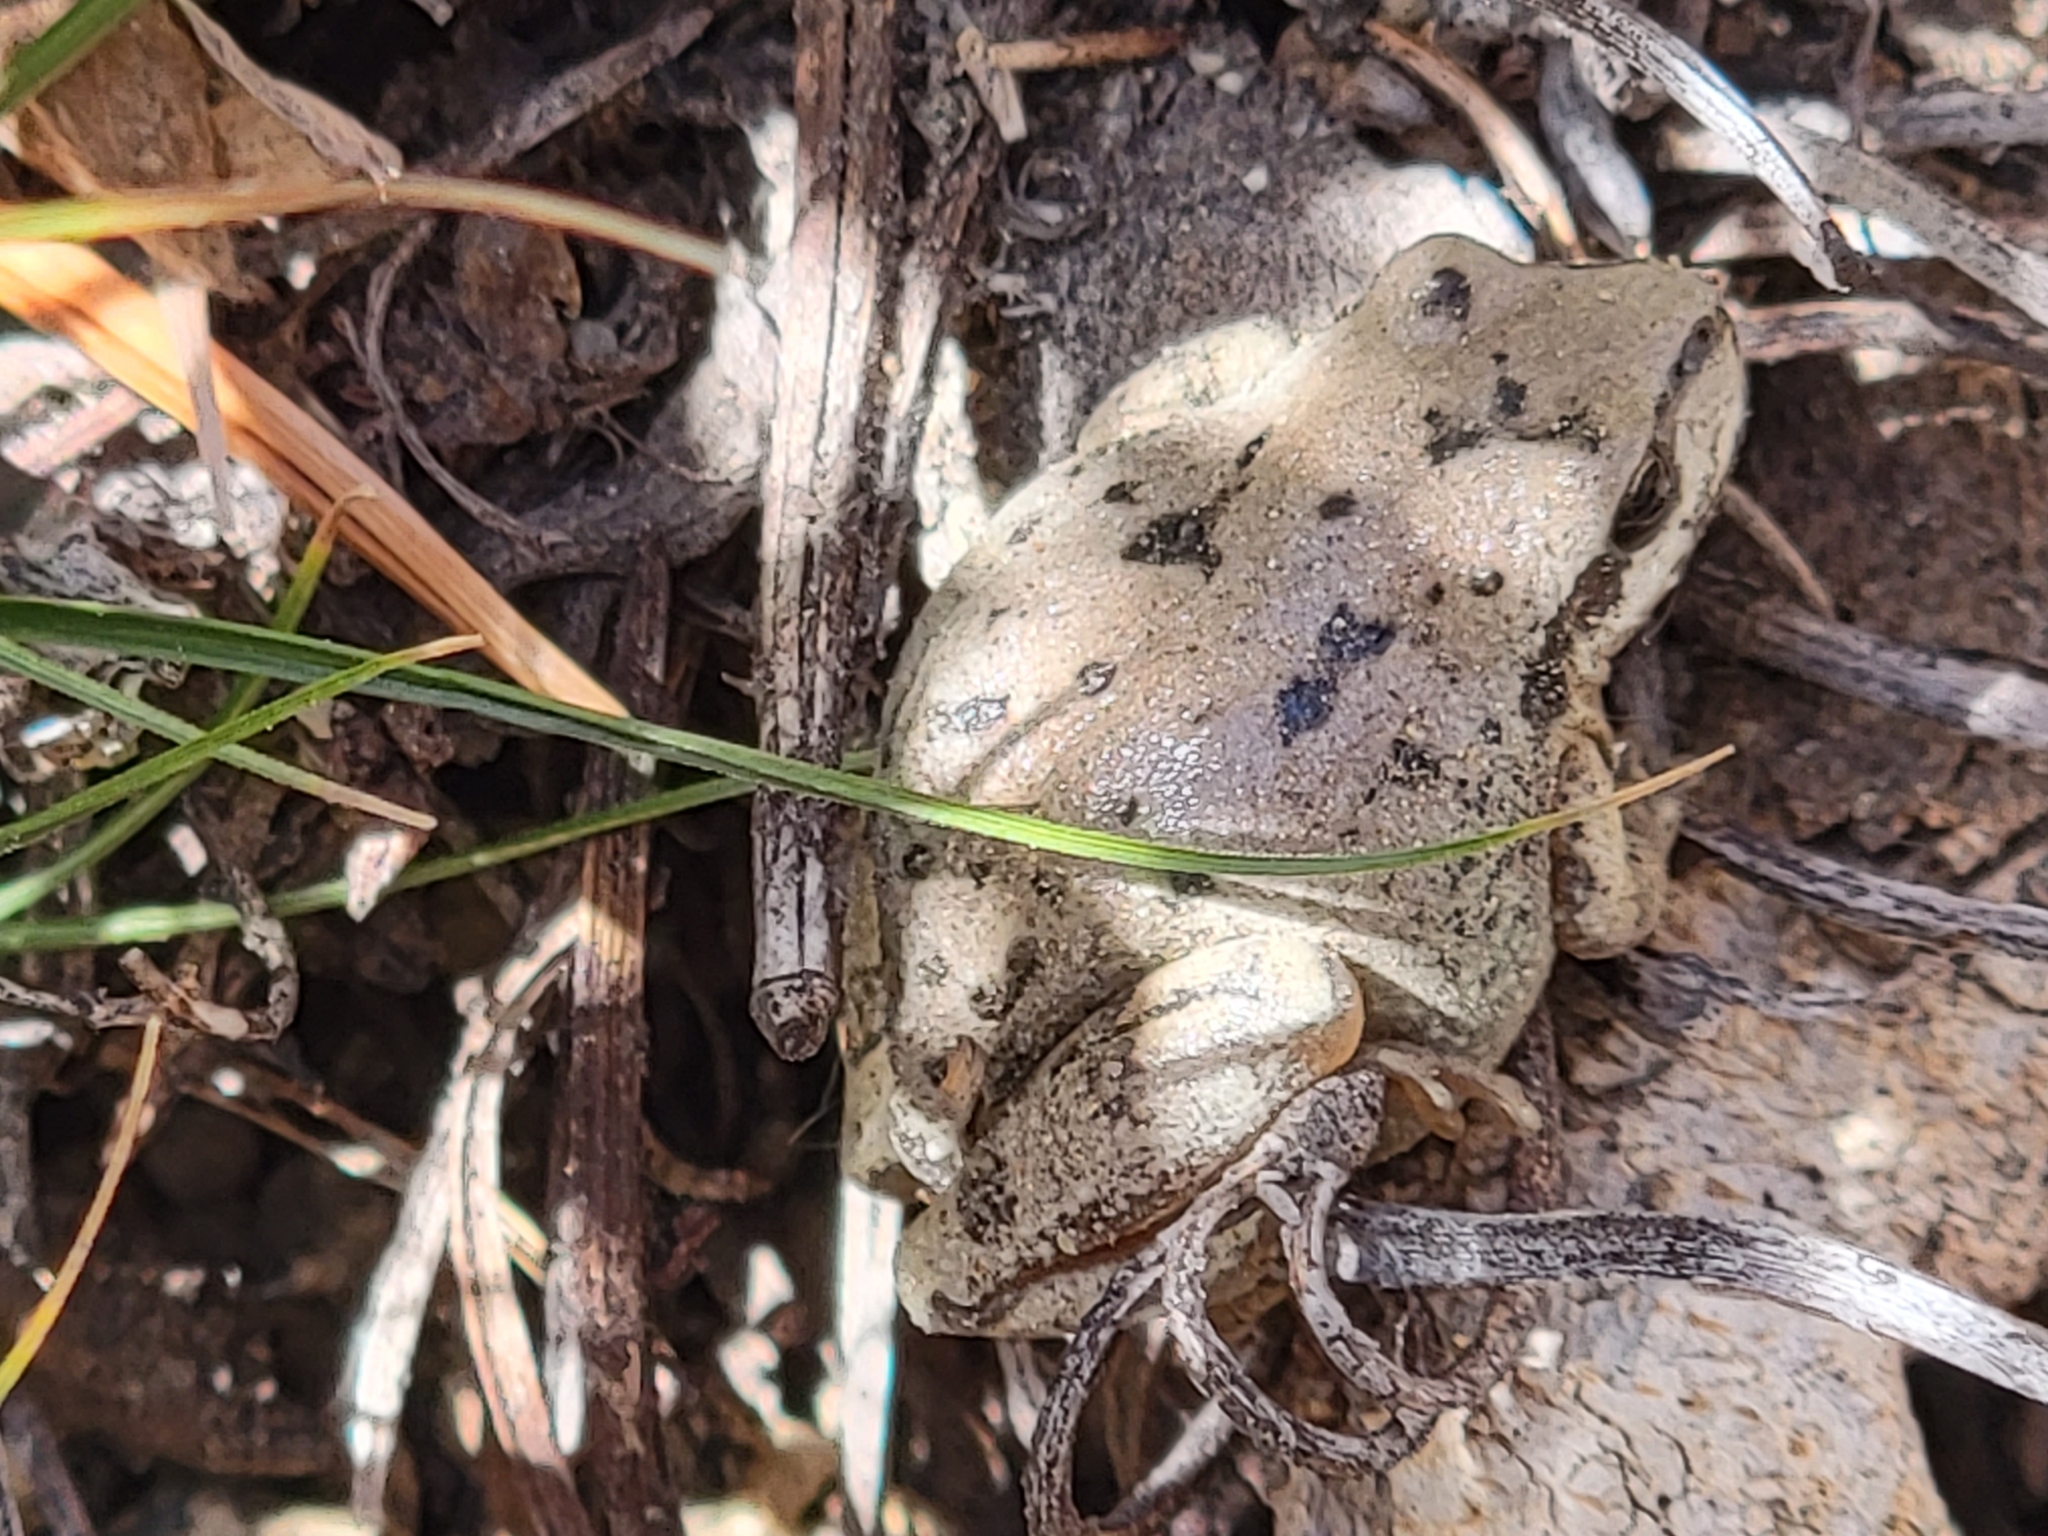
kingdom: Animalia
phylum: Chordata
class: Amphibia
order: Anura
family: Hylidae
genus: Pseudacris
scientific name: Pseudacris regilla
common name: Pacific chorus frog
